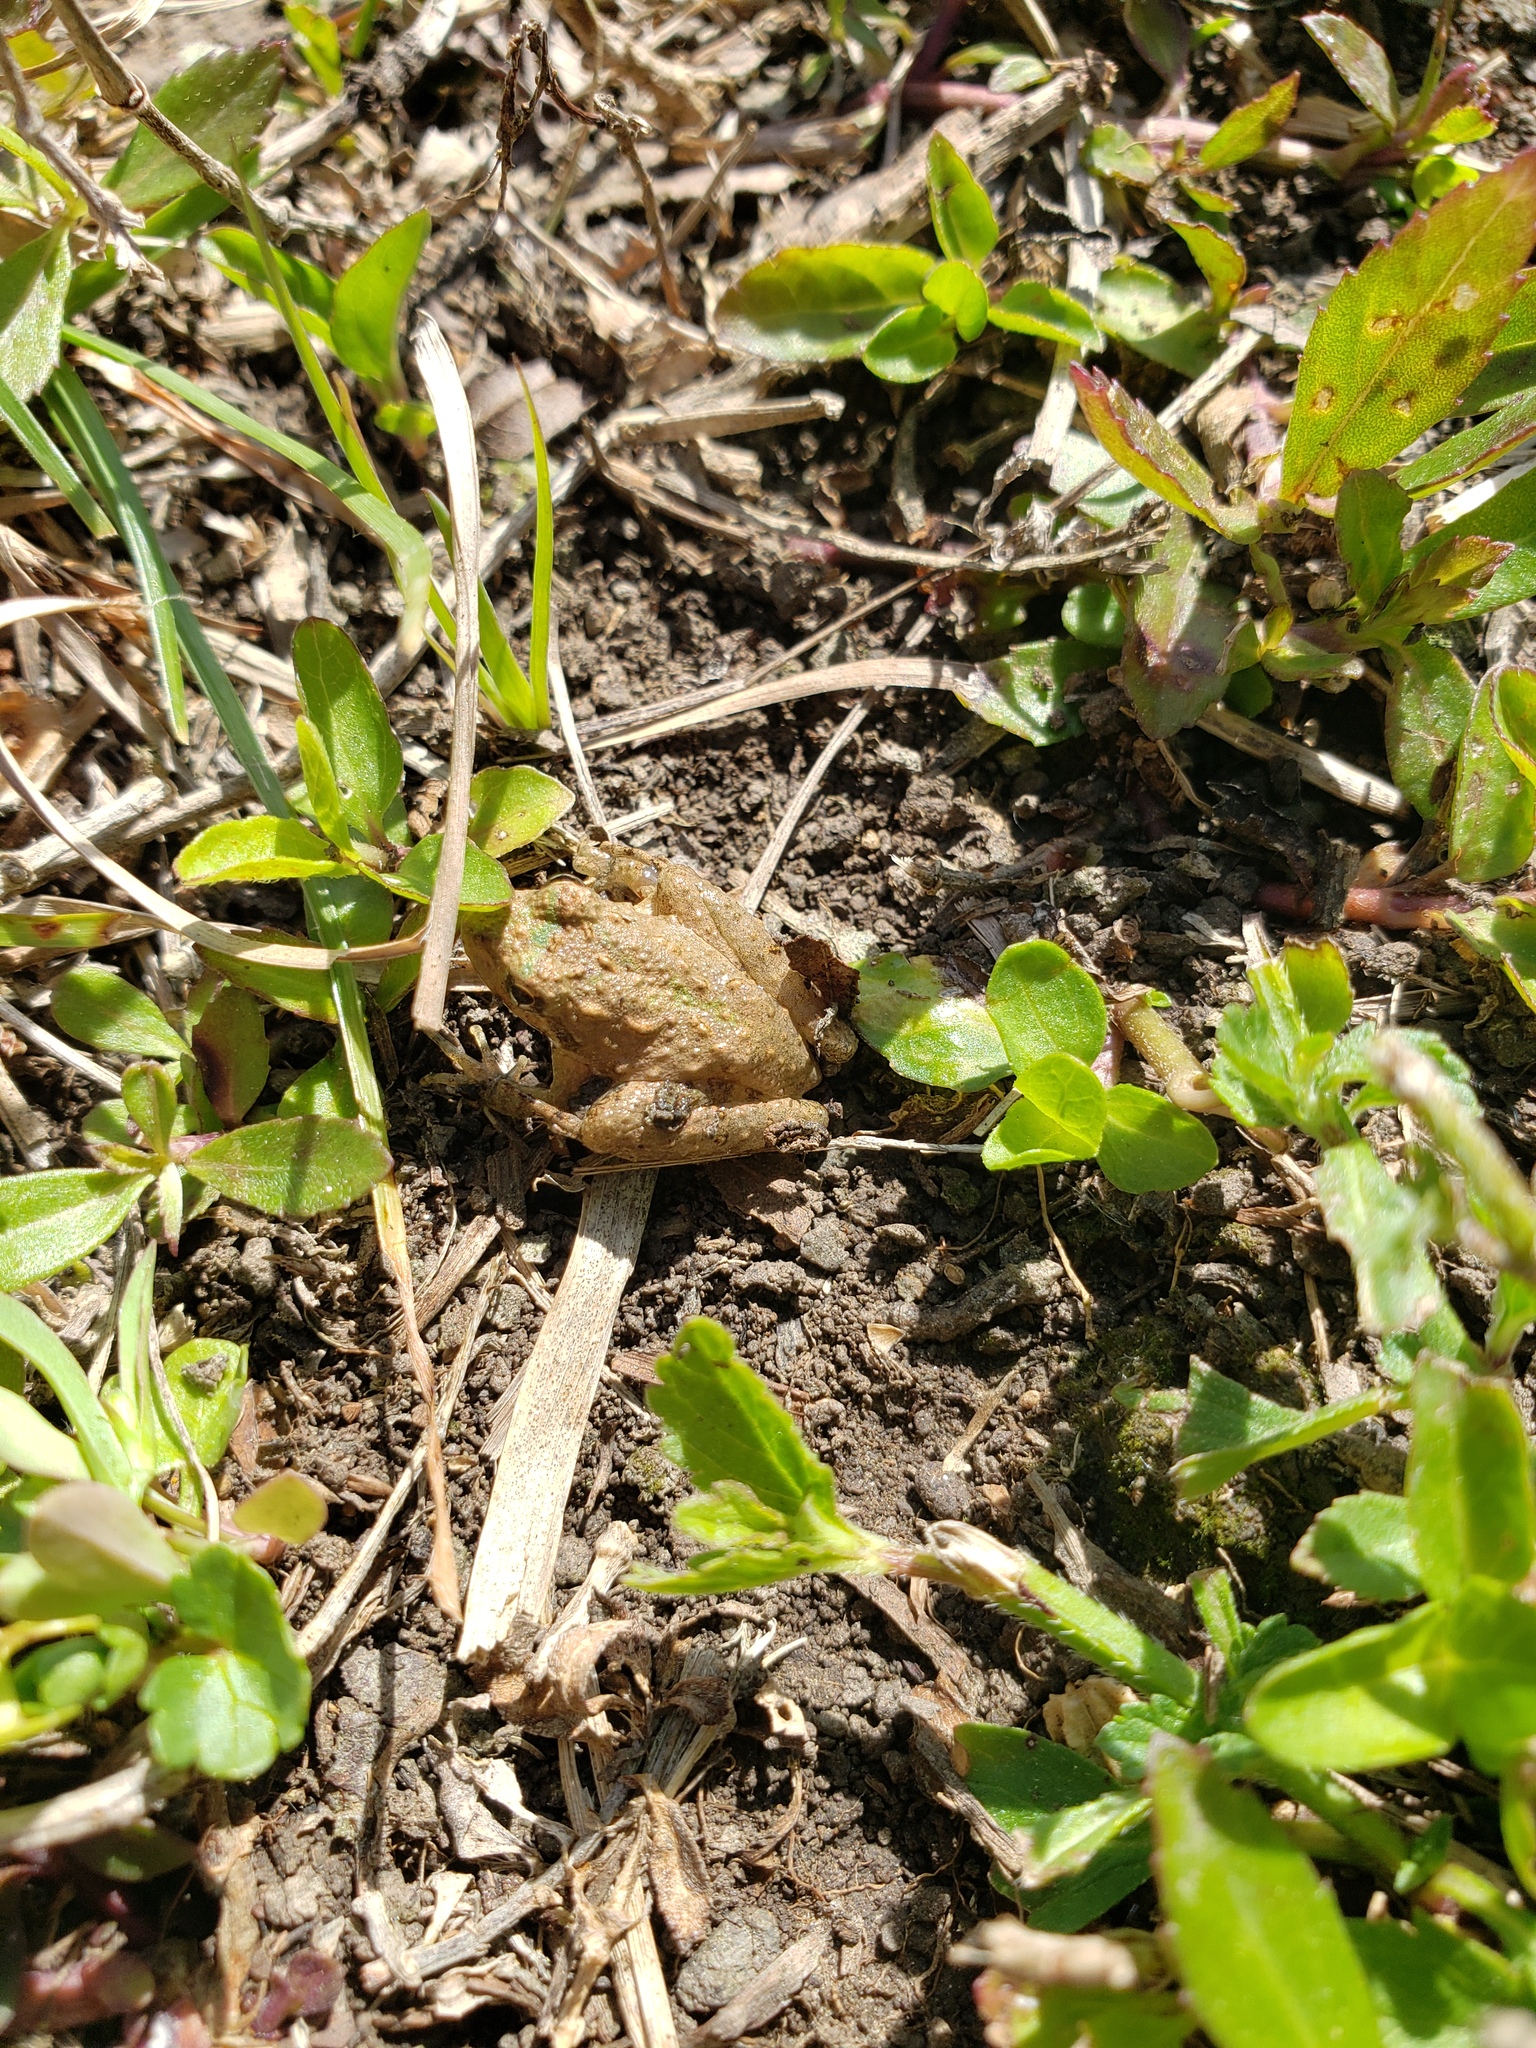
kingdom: Animalia
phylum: Chordata
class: Amphibia
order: Anura
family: Hylidae
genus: Acris
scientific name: Acris blanchardi
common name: Blanchard's cricket frog
